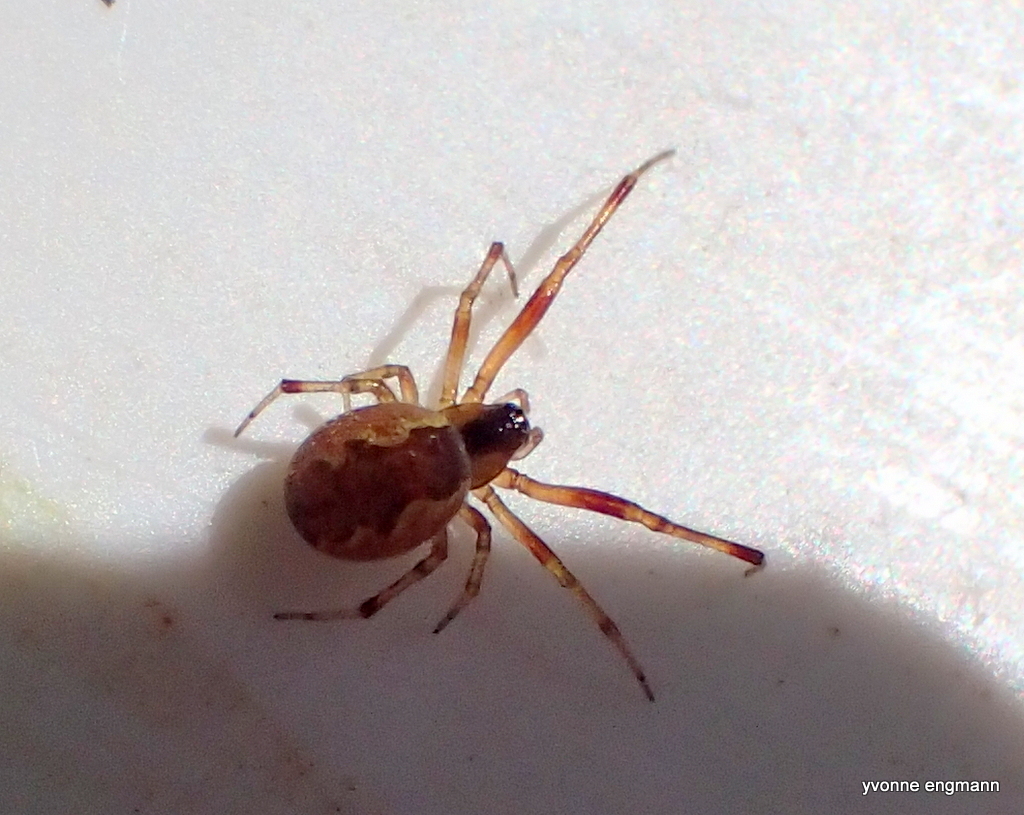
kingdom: Animalia
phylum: Arthropoda
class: Arachnida
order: Araneae
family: Theridiidae
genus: Anelosimus
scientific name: Anelosimus vittatus
